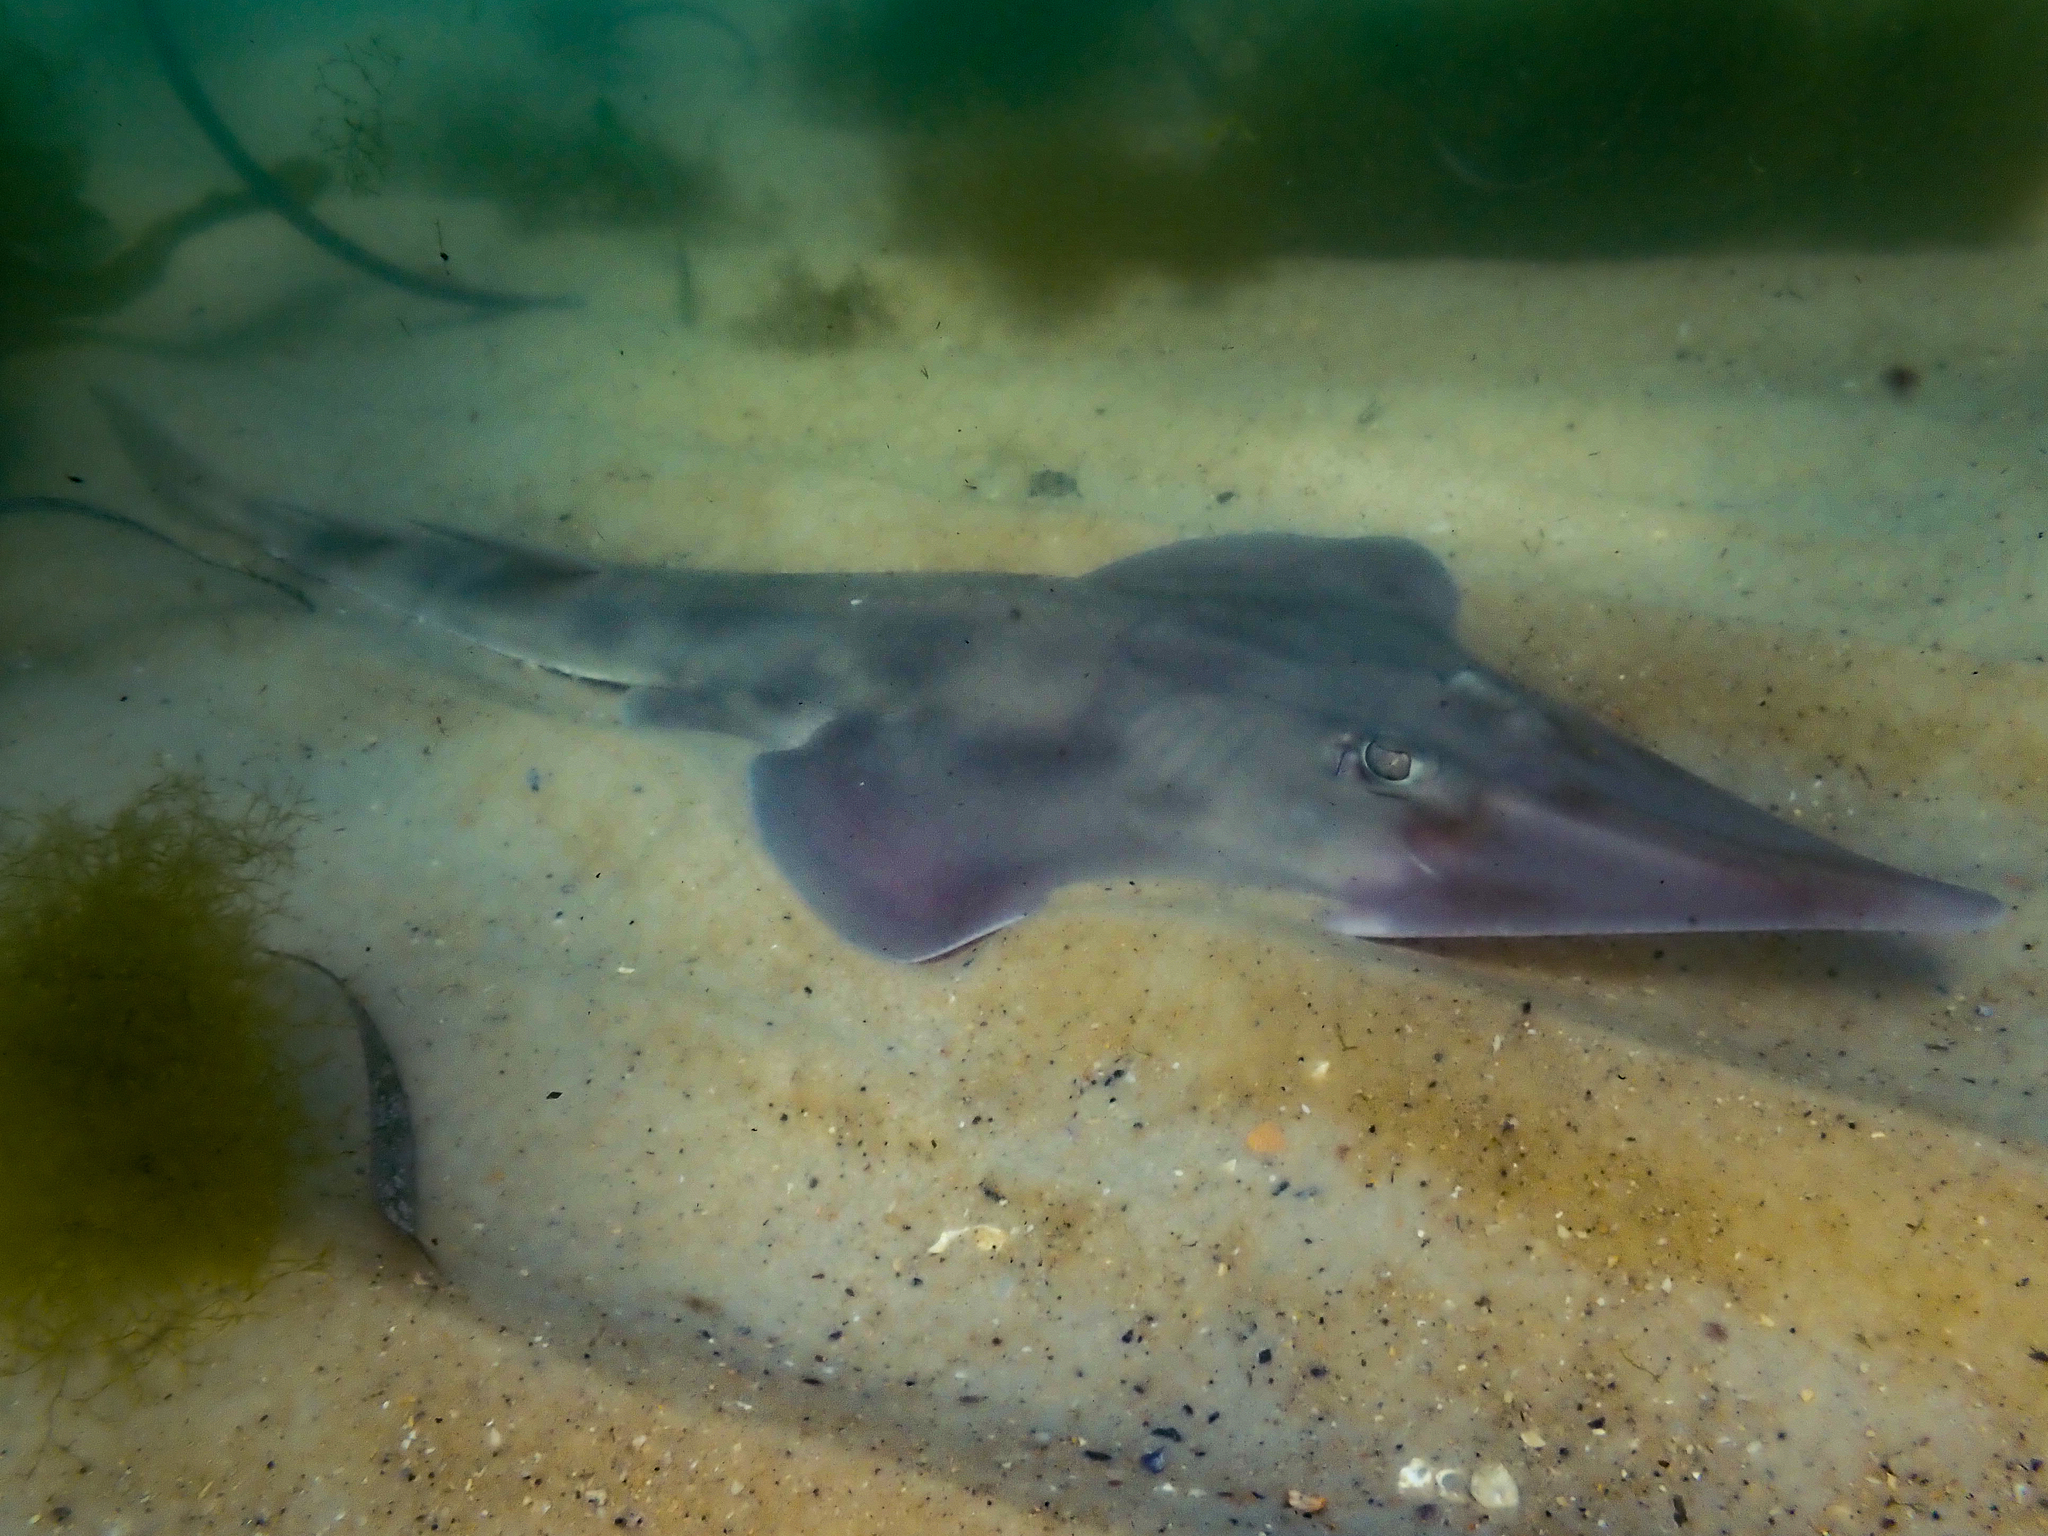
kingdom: Animalia
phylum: Chordata
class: Elasmobranchii
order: Rhinopristiformes
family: Rhinobatidae
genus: Aptychotrema
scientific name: Aptychotrema rostrata
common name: Eastern shovelnose ray
